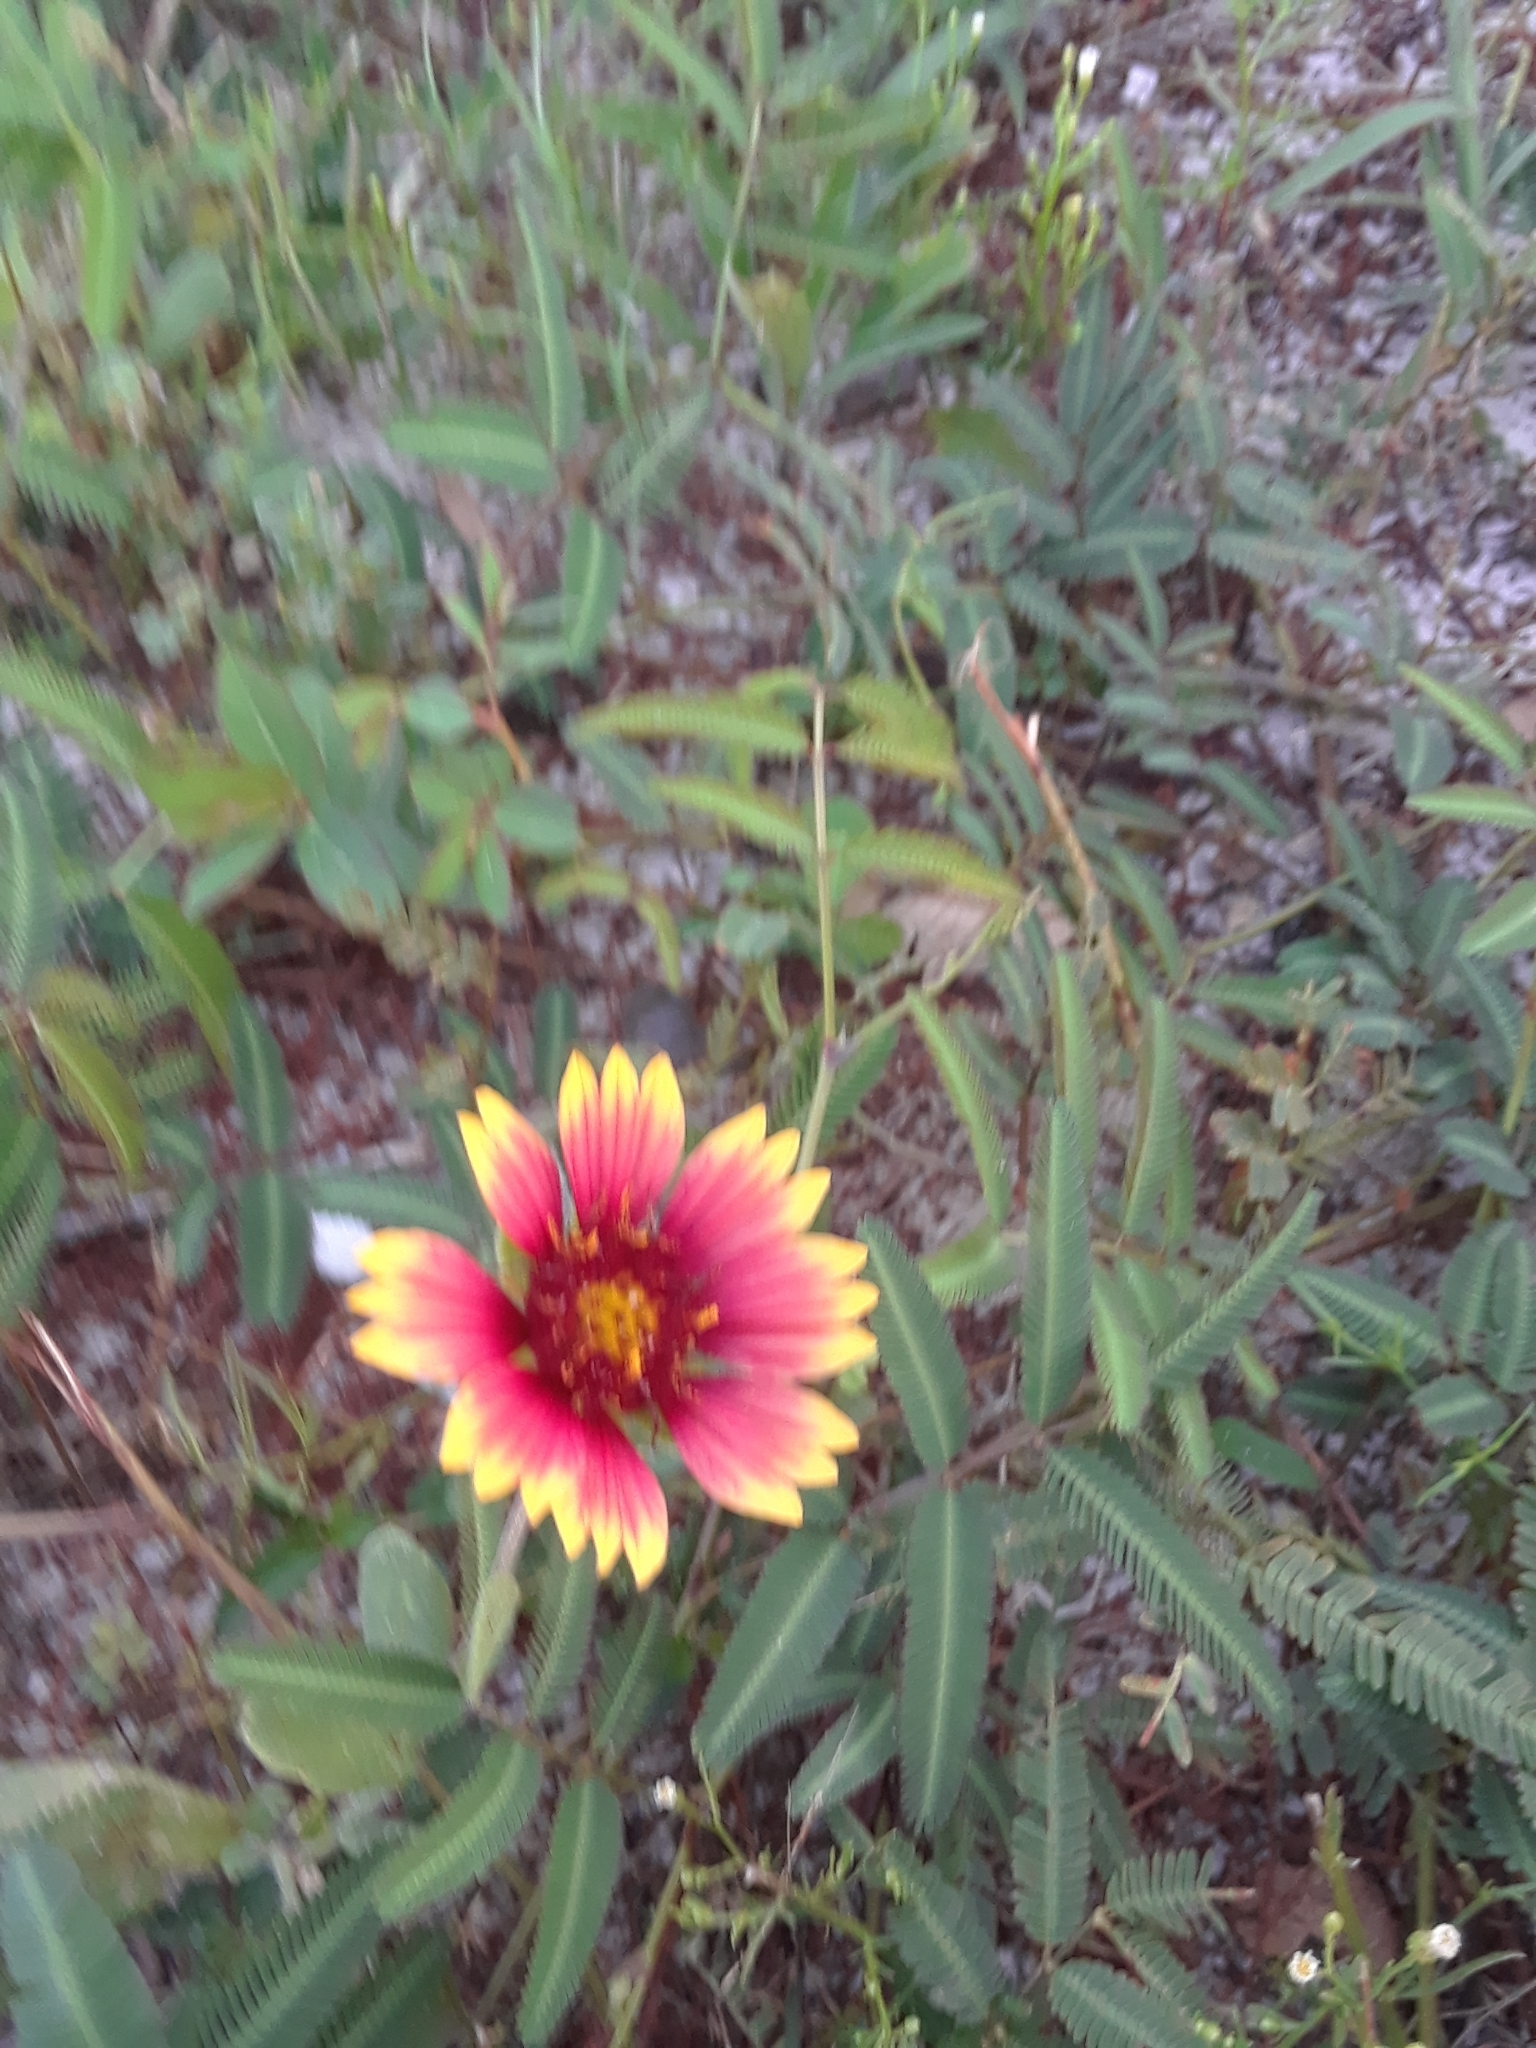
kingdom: Plantae
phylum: Tracheophyta
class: Magnoliopsida
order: Asterales
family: Asteraceae
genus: Gaillardia
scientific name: Gaillardia pulchella
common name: Firewheel
